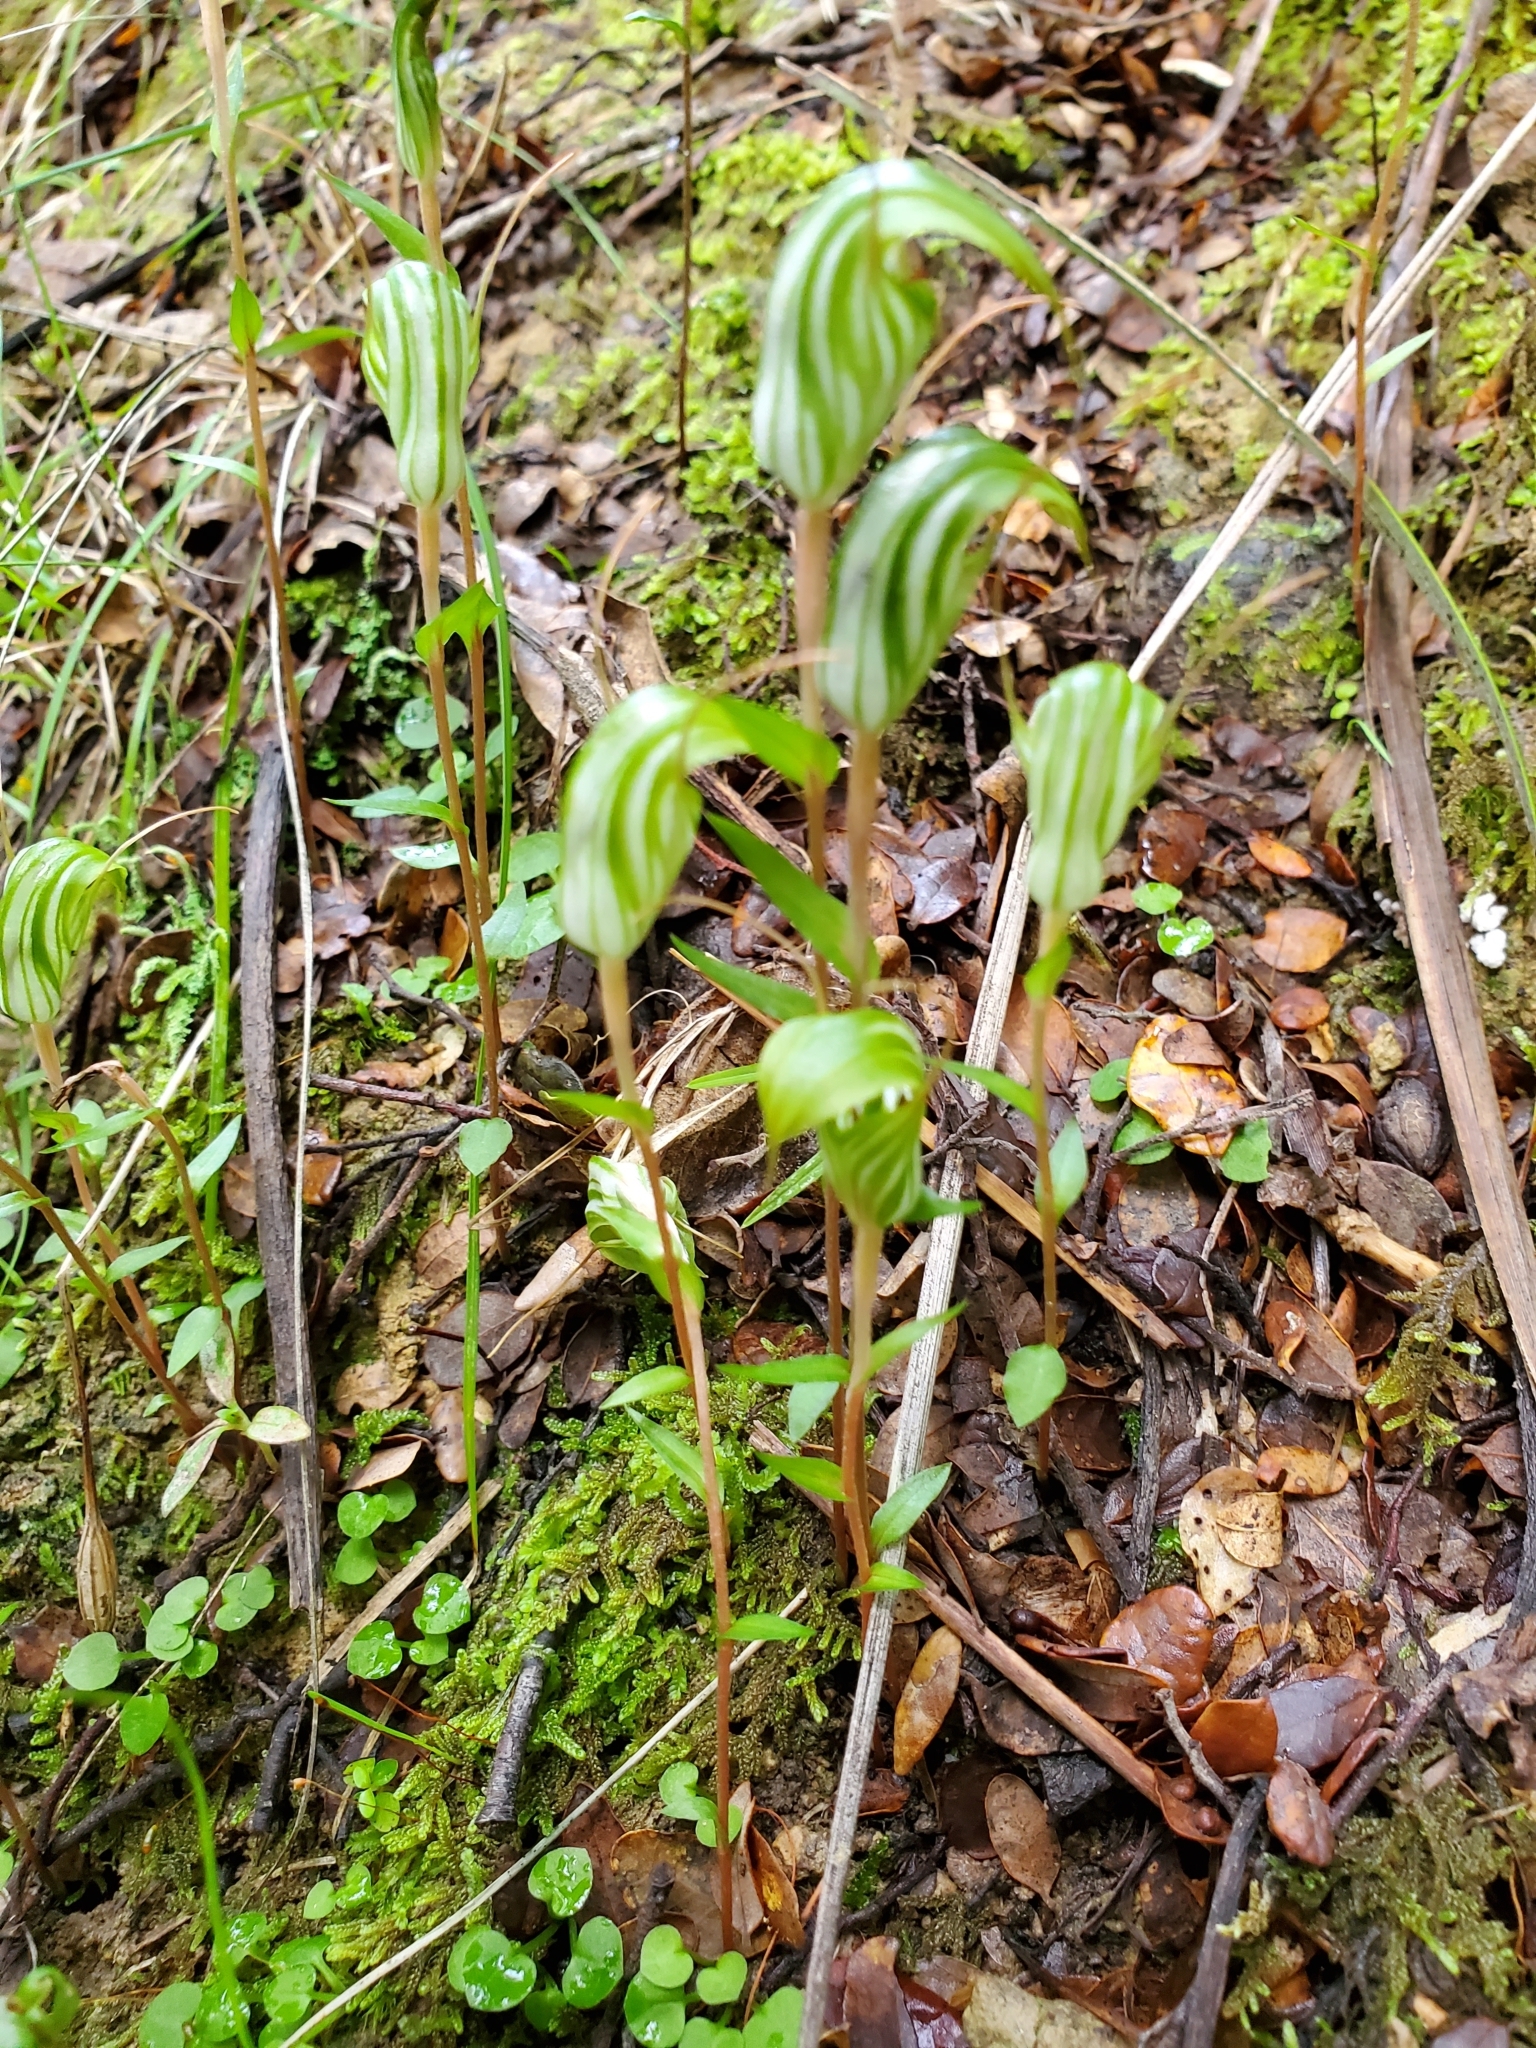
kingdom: Plantae
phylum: Tracheophyta
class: Liliopsida
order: Asparagales
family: Orchidaceae
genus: Pterostylis
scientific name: Pterostylis alobula
